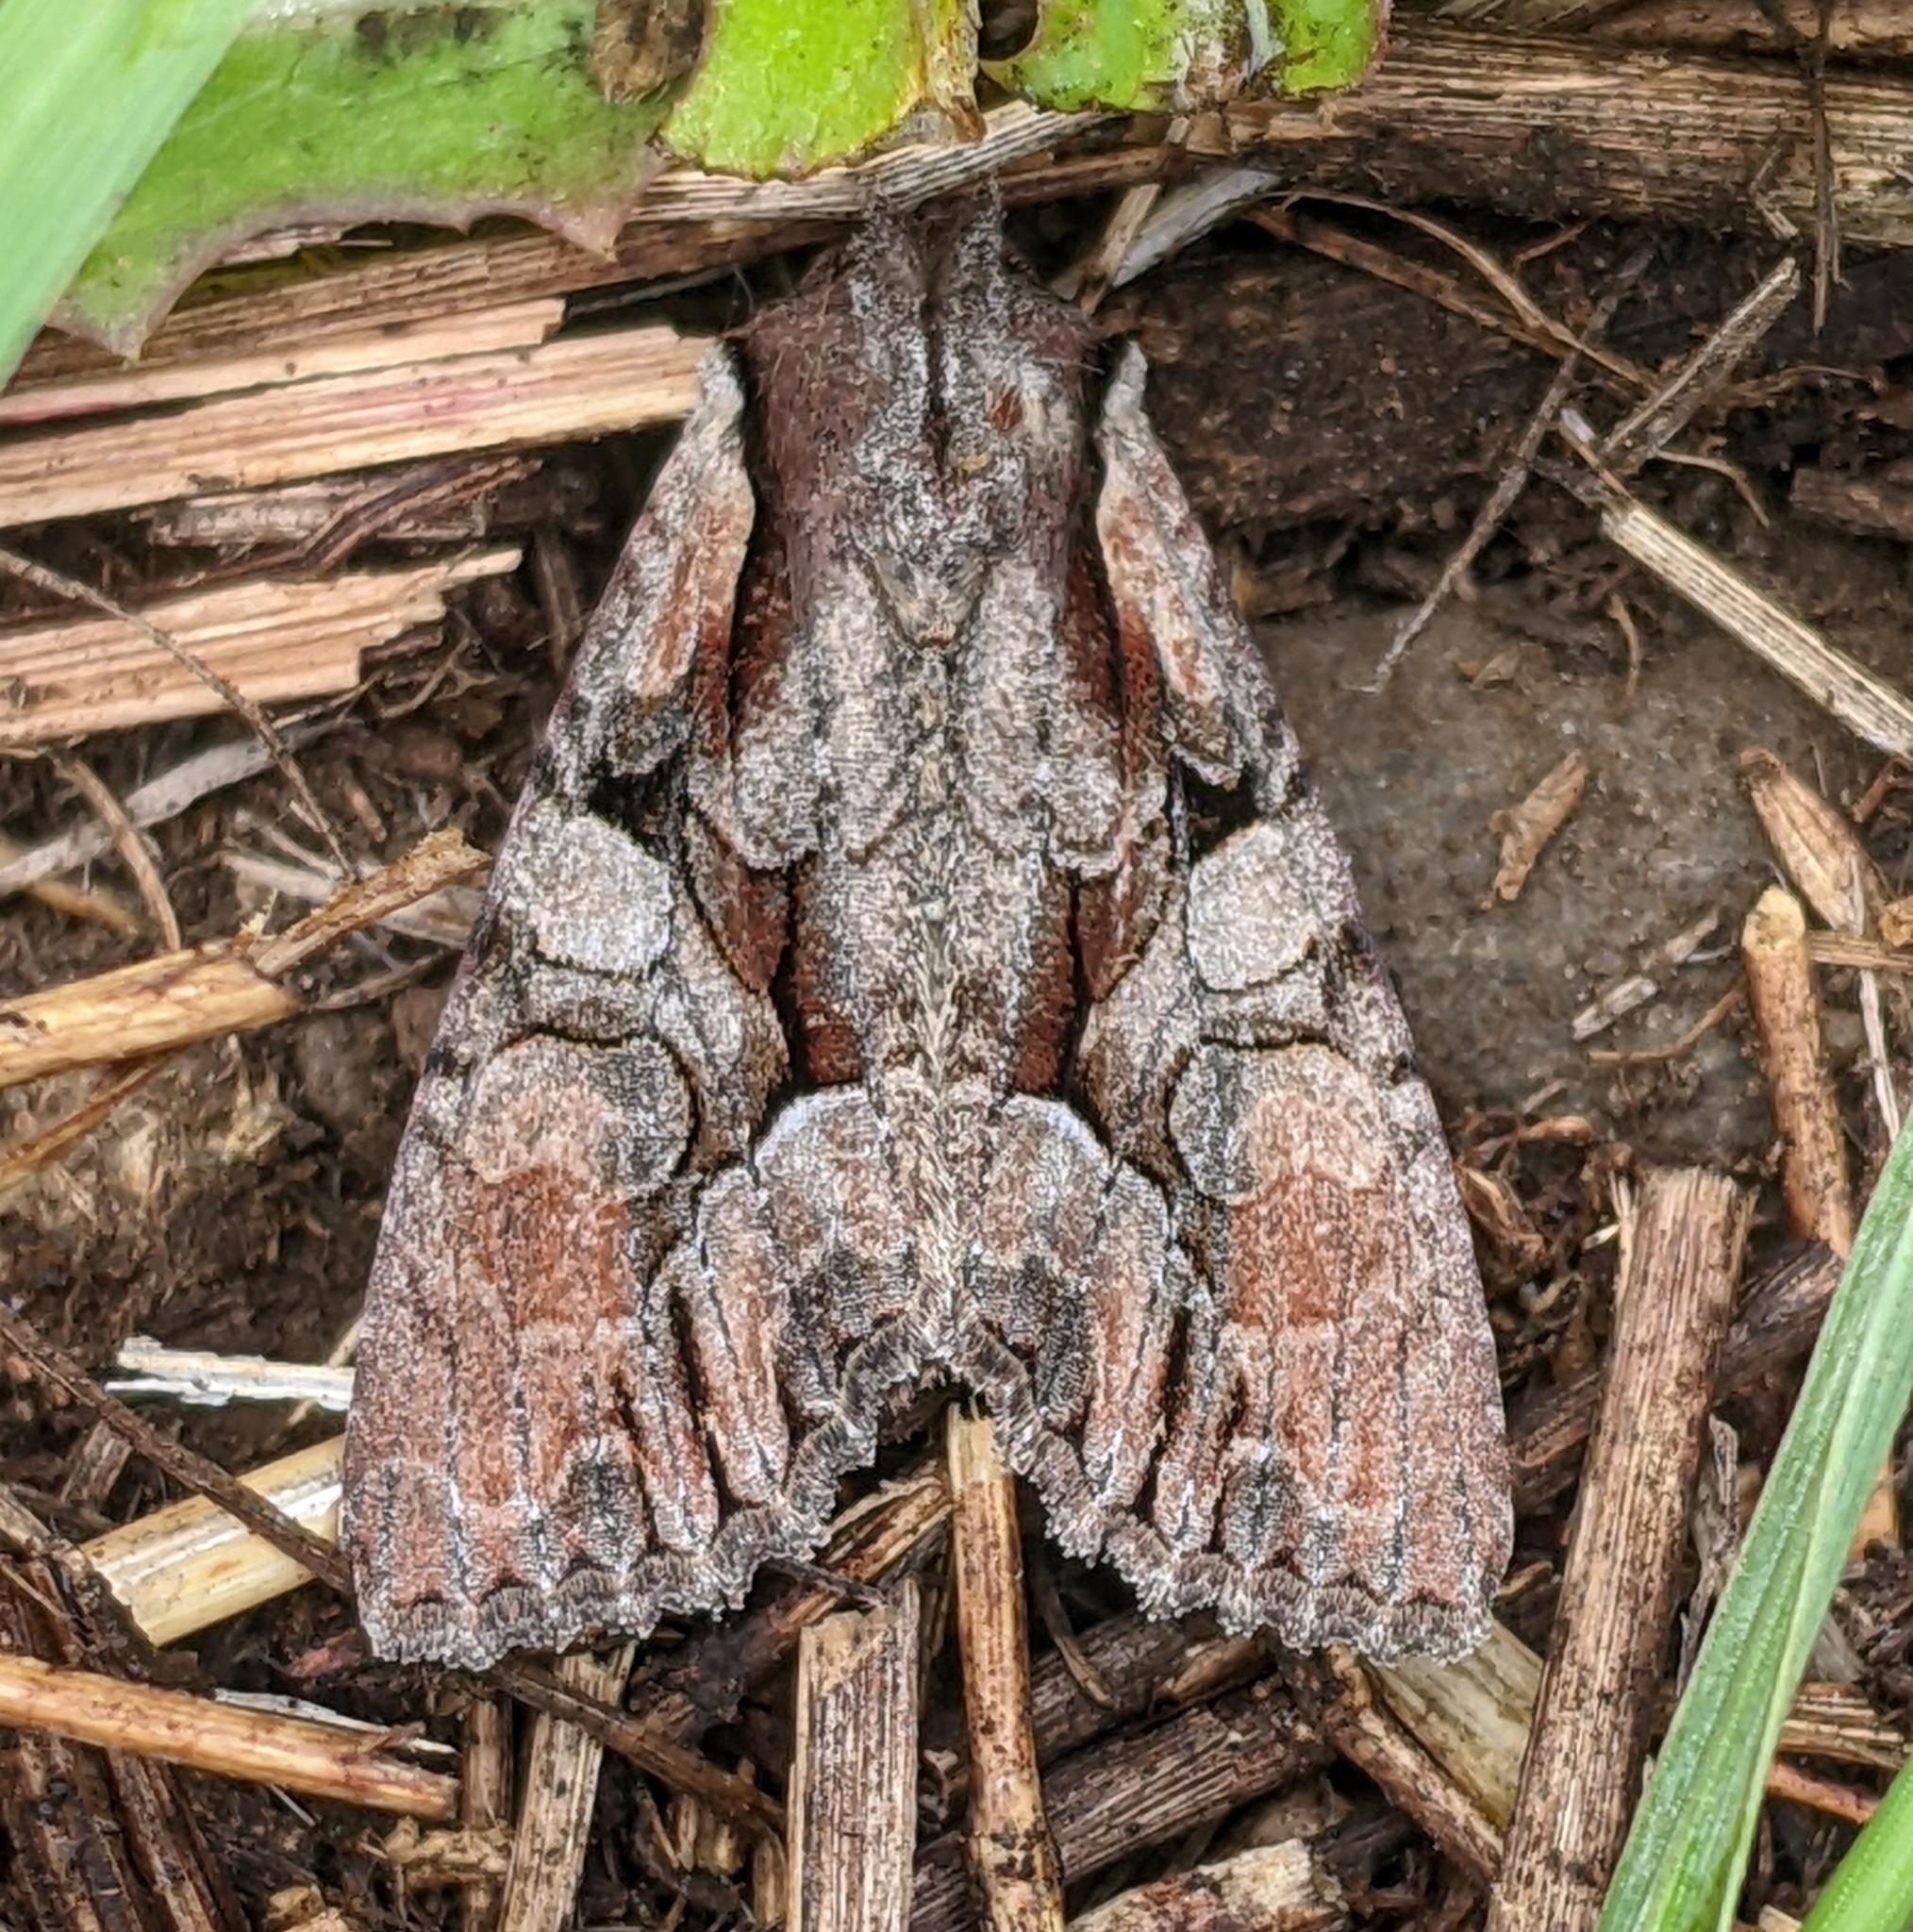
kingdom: Animalia
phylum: Arthropoda
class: Insecta
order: Lepidoptera
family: Noctuidae
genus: Lacanobia
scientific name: Lacanobia subjuncta
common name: Speckled cutworm moth
